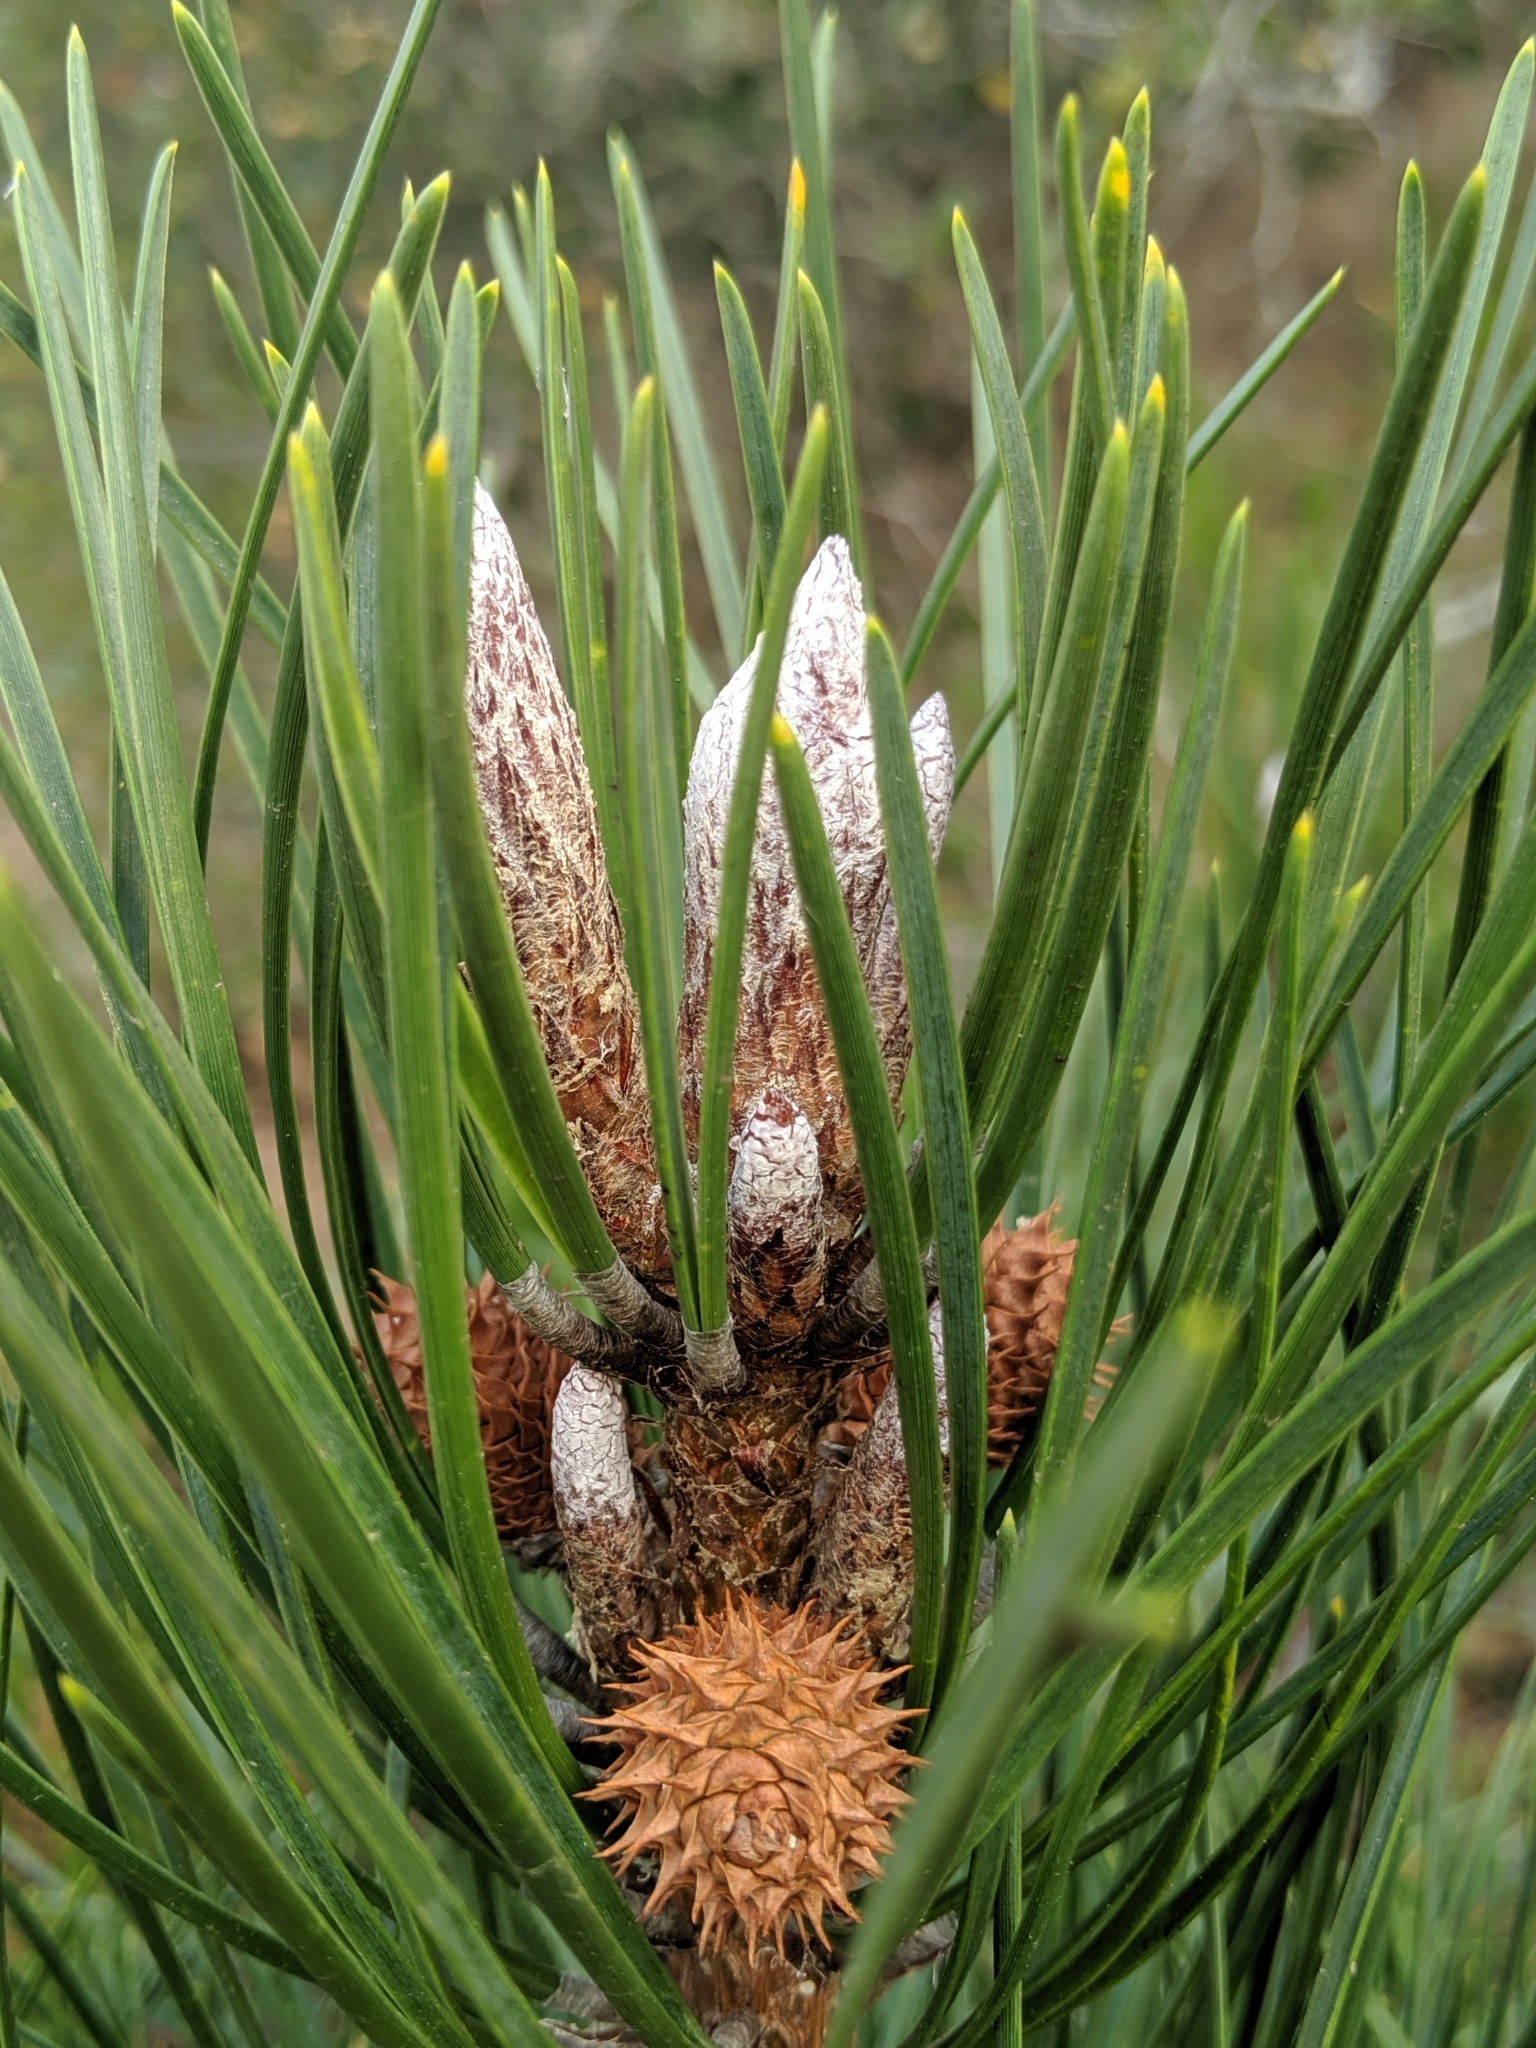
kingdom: Plantae
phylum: Tracheophyta
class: Pinopsida
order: Pinales
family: Pinaceae
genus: Pinus
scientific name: Pinus muricata
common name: Bishop pine
